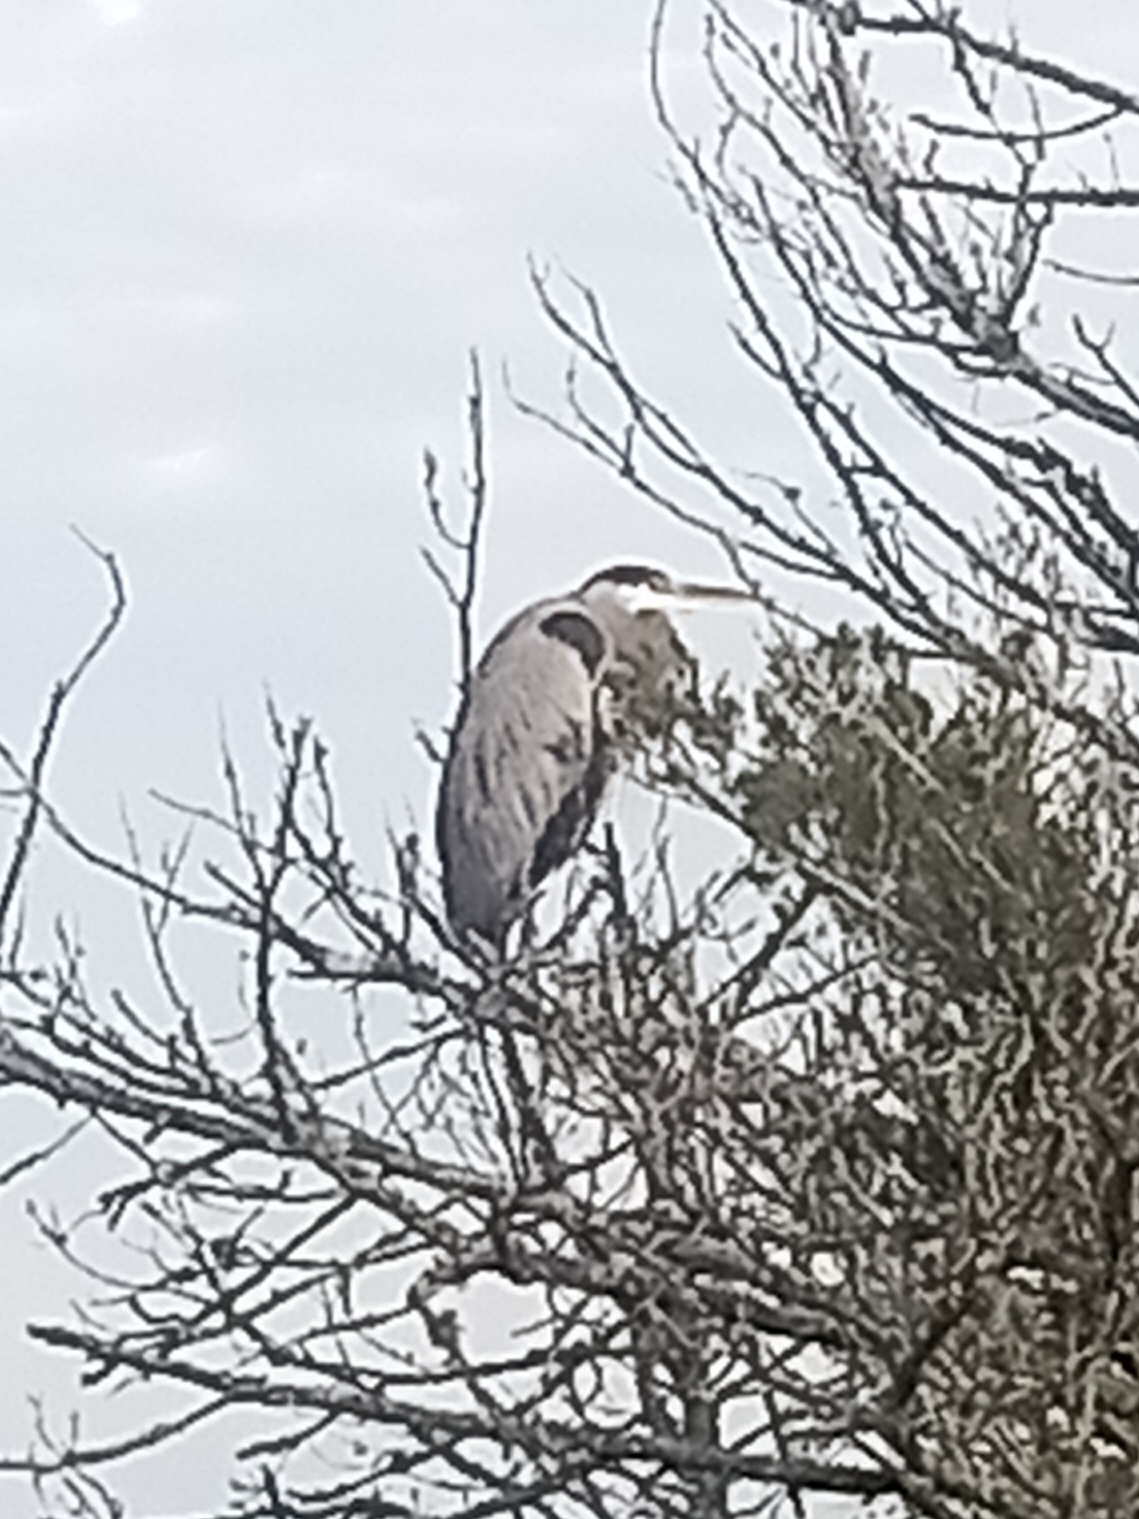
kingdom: Animalia
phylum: Chordata
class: Aves
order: Pelecaniformes
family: Ardeidae
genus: Ardea
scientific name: Ardea herodias
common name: Great blue heron
